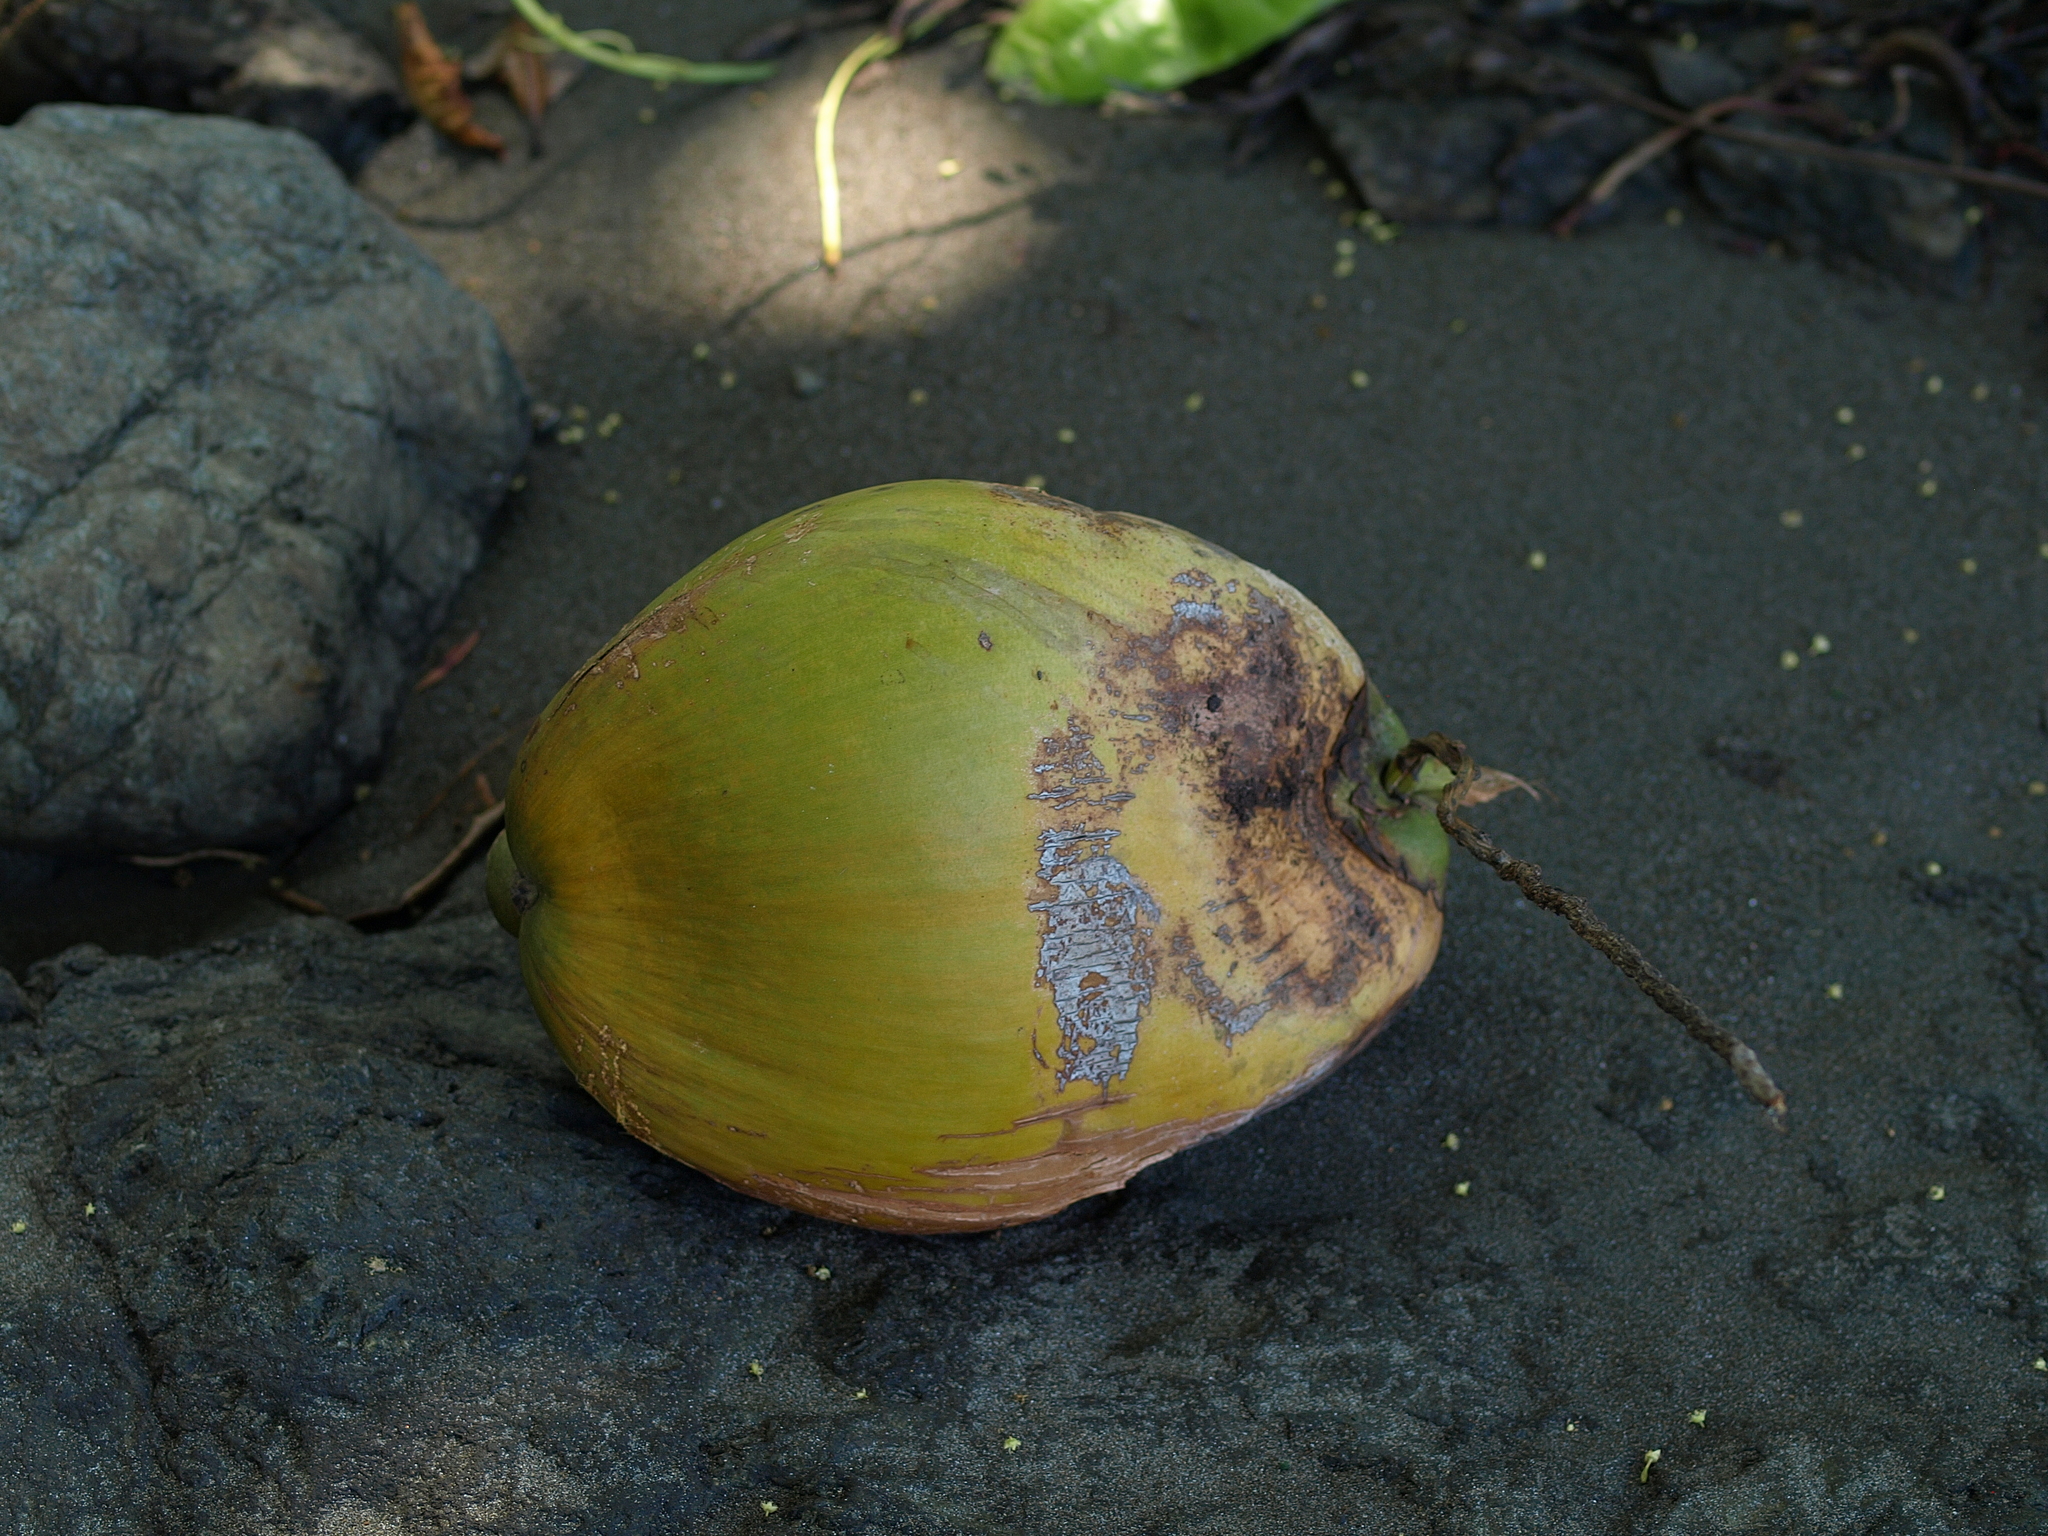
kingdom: Plantae
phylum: Tracheophyta
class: Liliopsida
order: Arecales
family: Arecaceae
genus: Cocos
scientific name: Cocos nucifera
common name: Coconut palm
